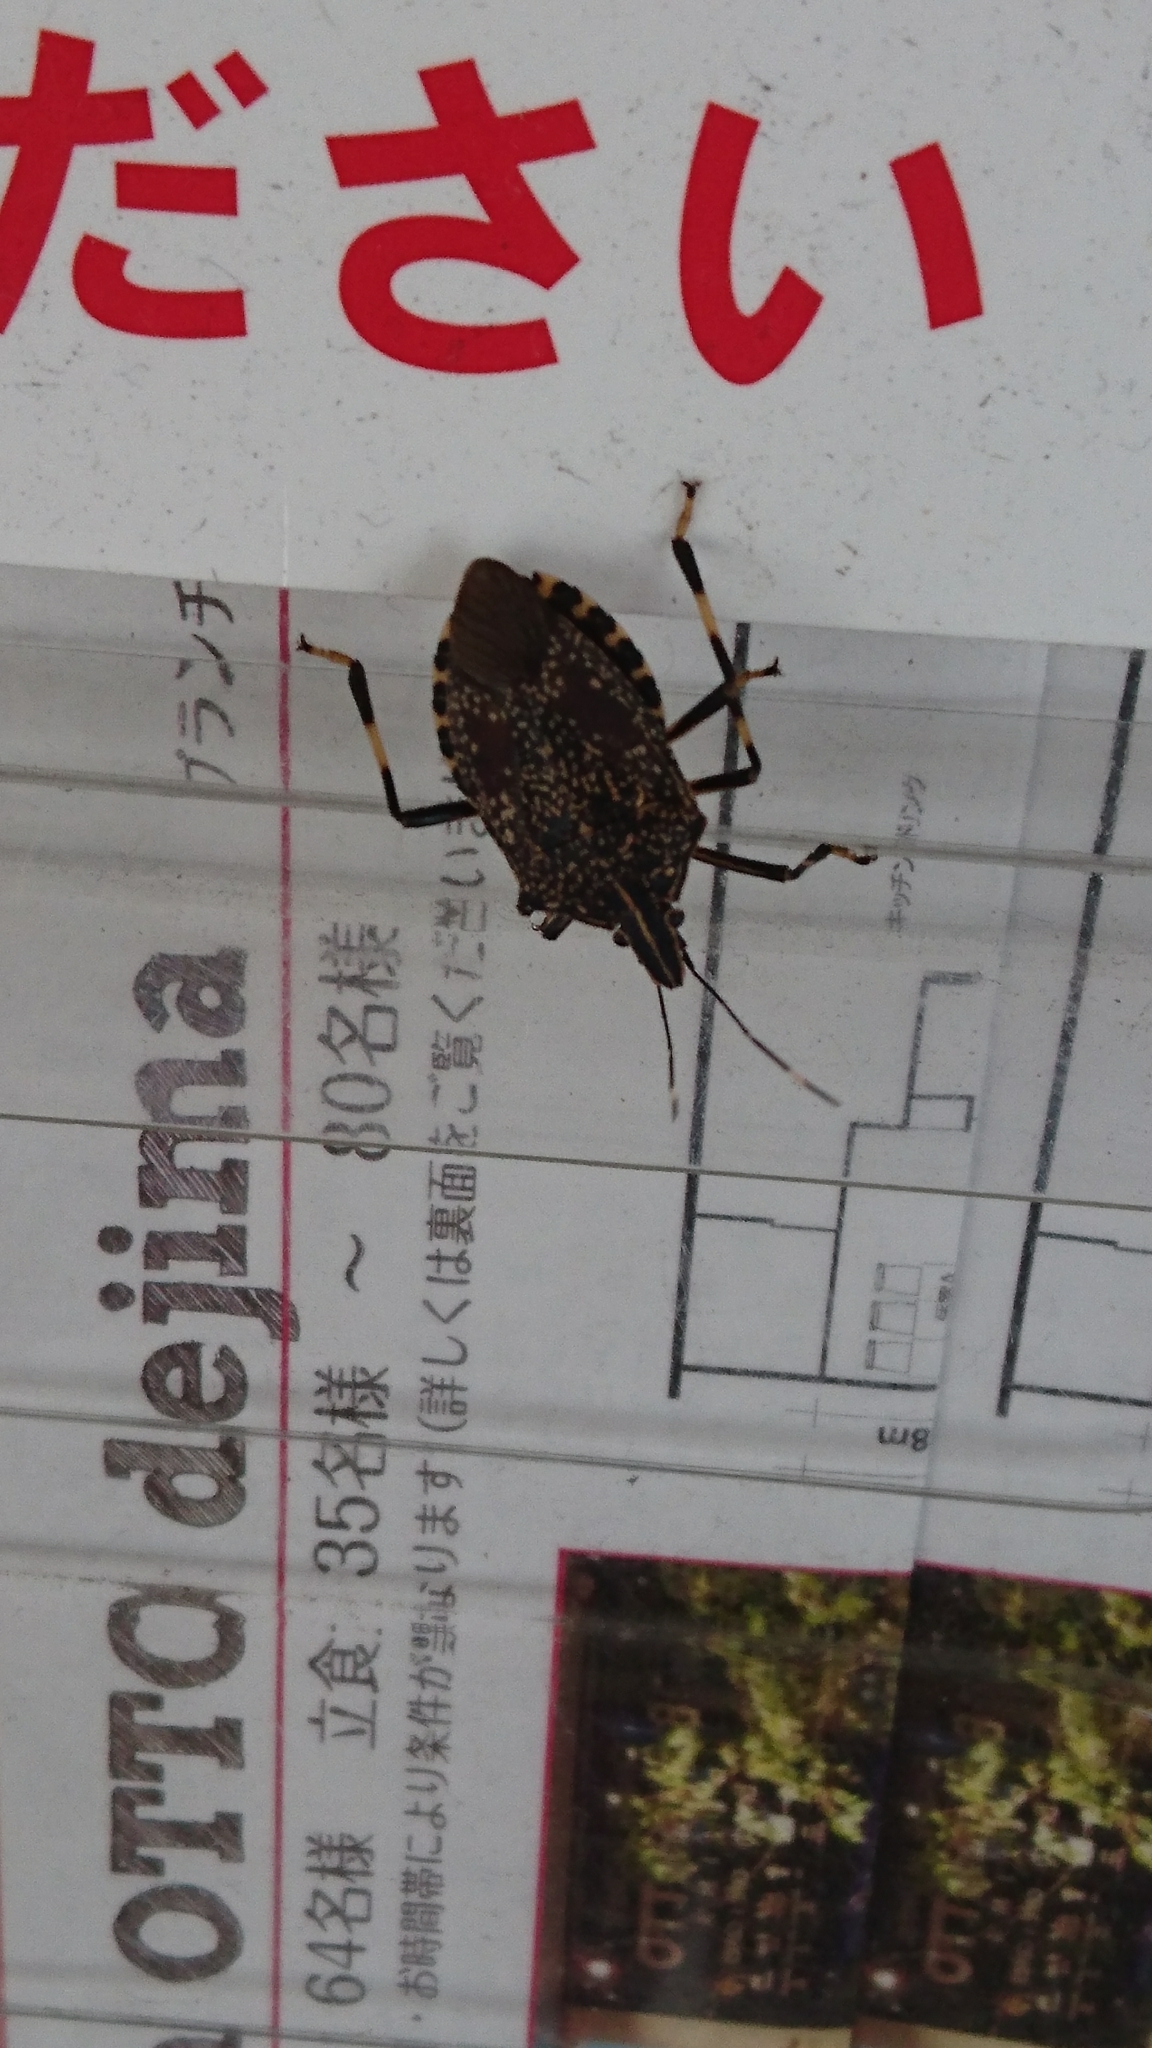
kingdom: Animalia
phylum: Arthropoda
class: Insecta
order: Hemiptera
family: Pentatomidae
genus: Erthesina
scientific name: Erthesina fullo
